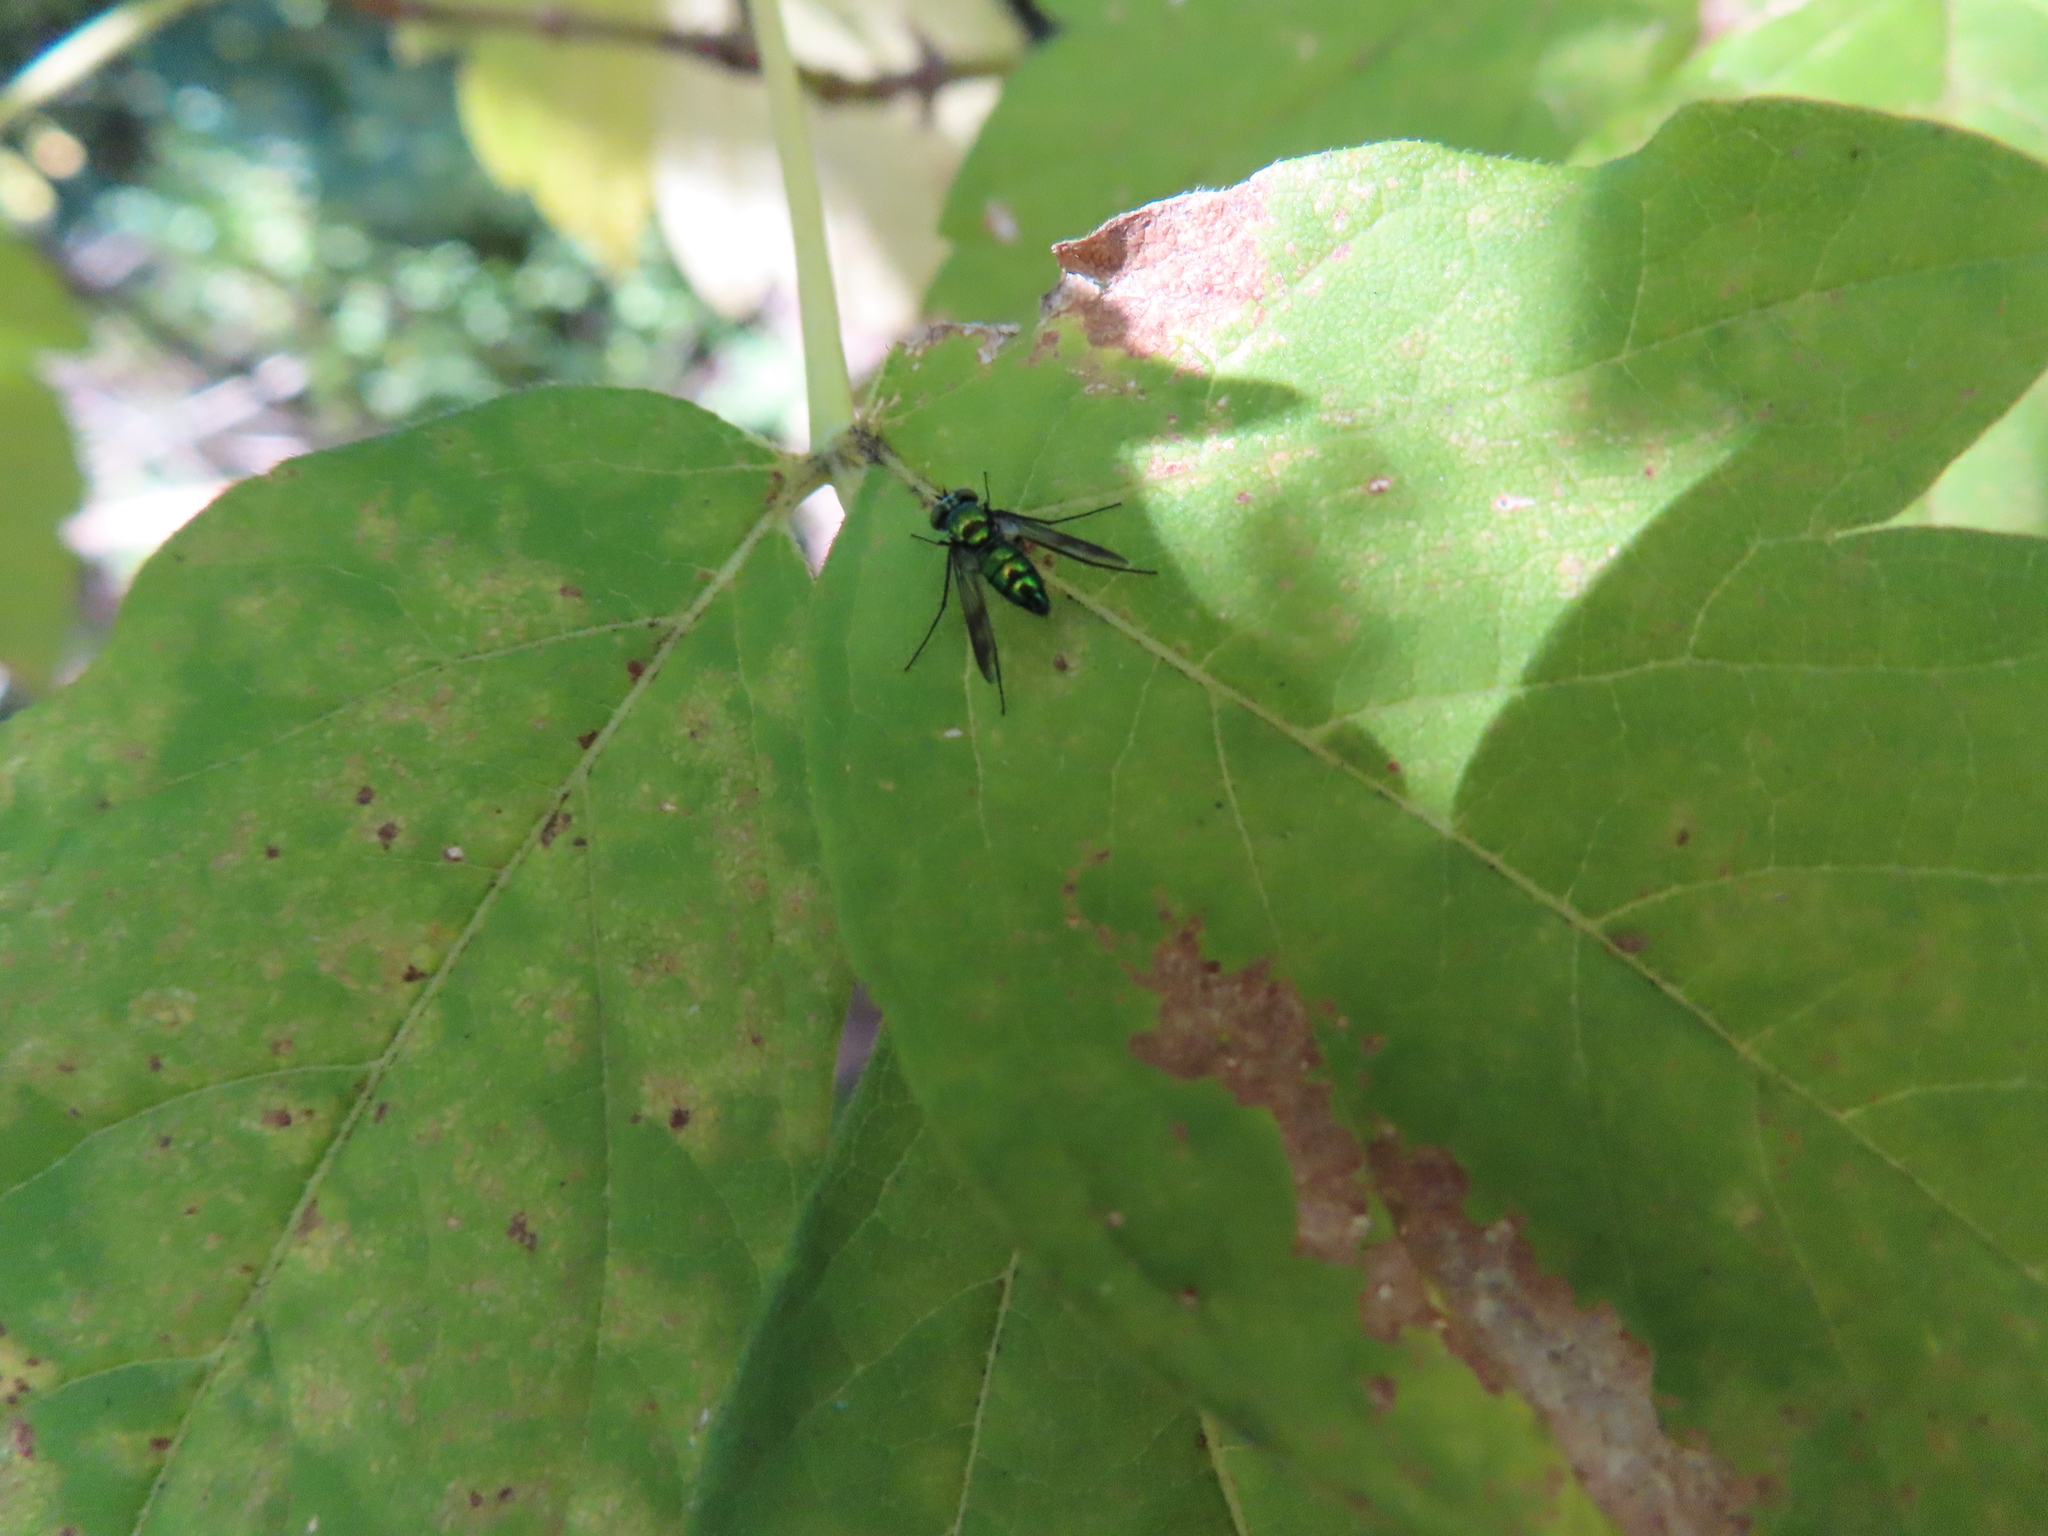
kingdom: Animalia
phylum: Arthropoda
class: Insecta
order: Diptera
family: Dolichopodidae
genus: Condylostylus
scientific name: Condylostylus patibulatus
